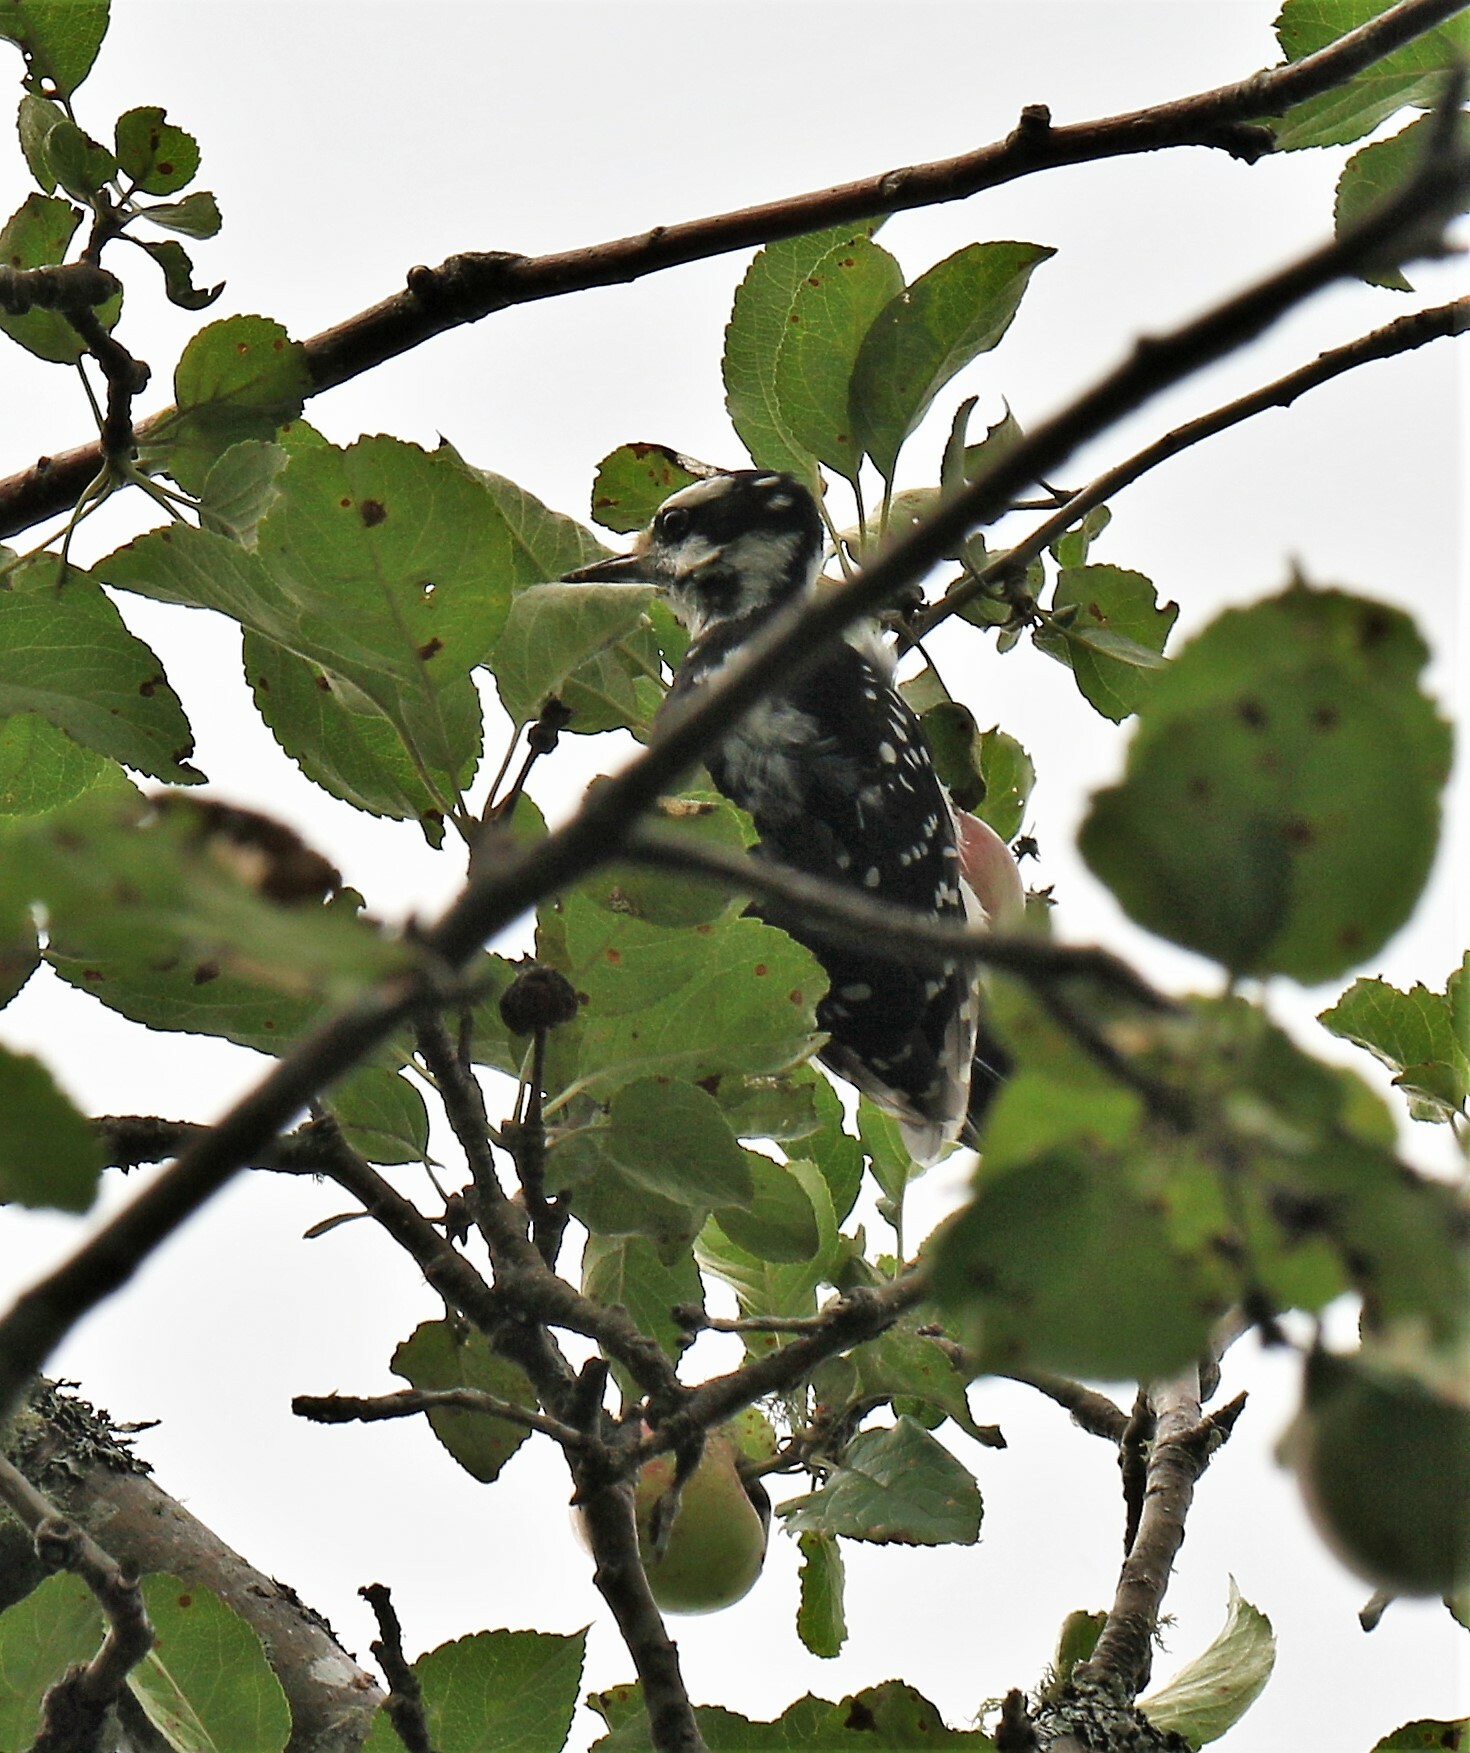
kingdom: Animalia
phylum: Chordata
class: Aves
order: Piciformes
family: Picidae
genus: Leuconotopicus
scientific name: Leuconotopicus villosus
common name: Hairy woodpecker
